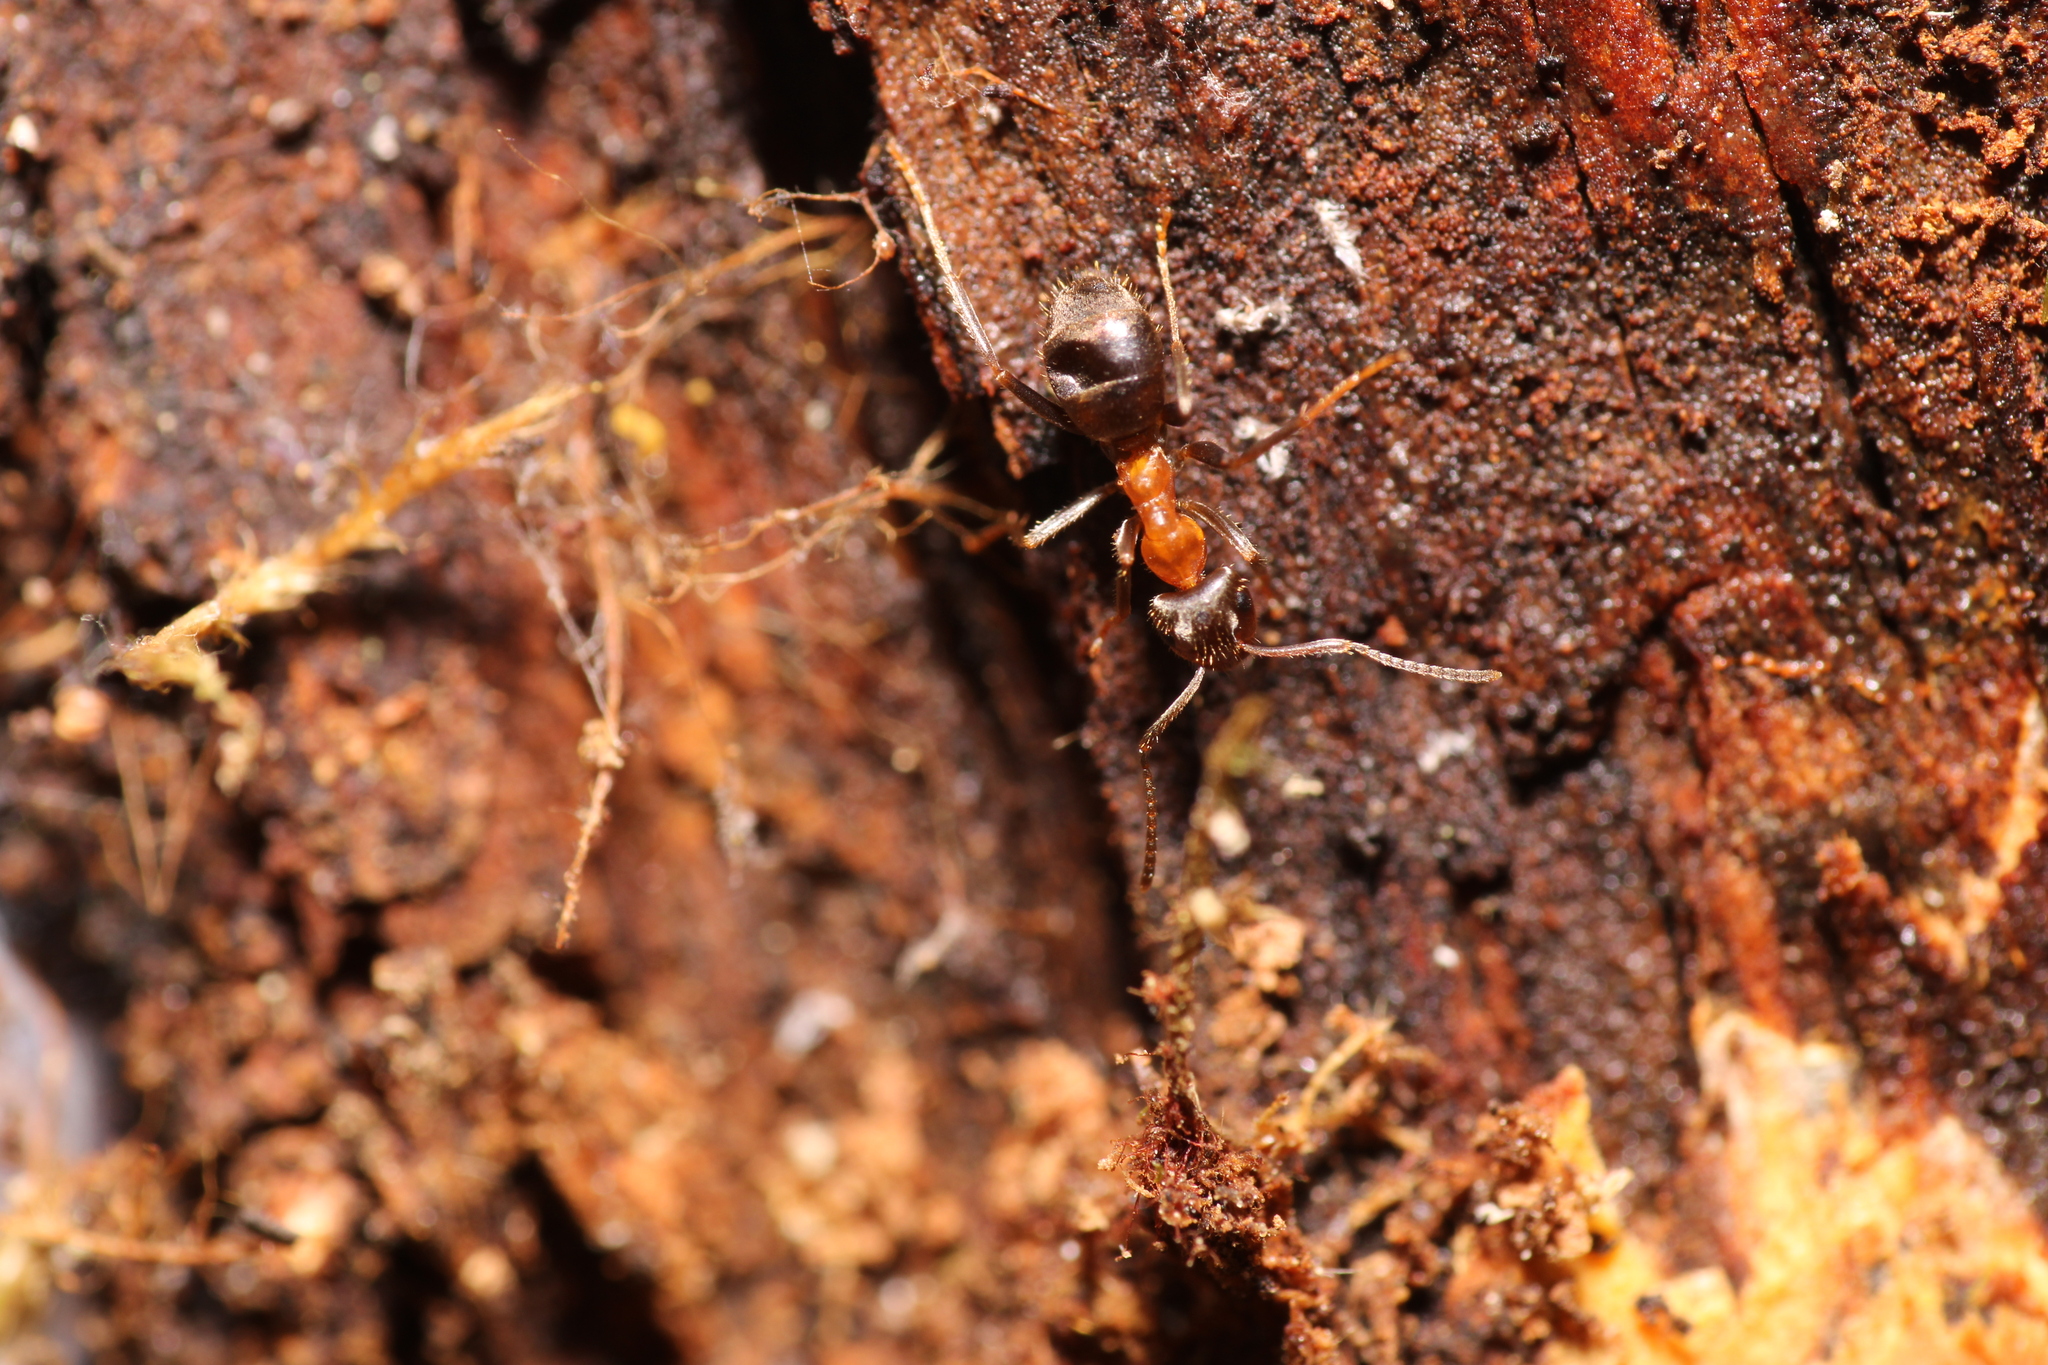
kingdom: Animalia
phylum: Arthropoda
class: Insecta
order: Hymenoptera
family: Formicidae
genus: Lasius
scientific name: Lasius emarginatus
